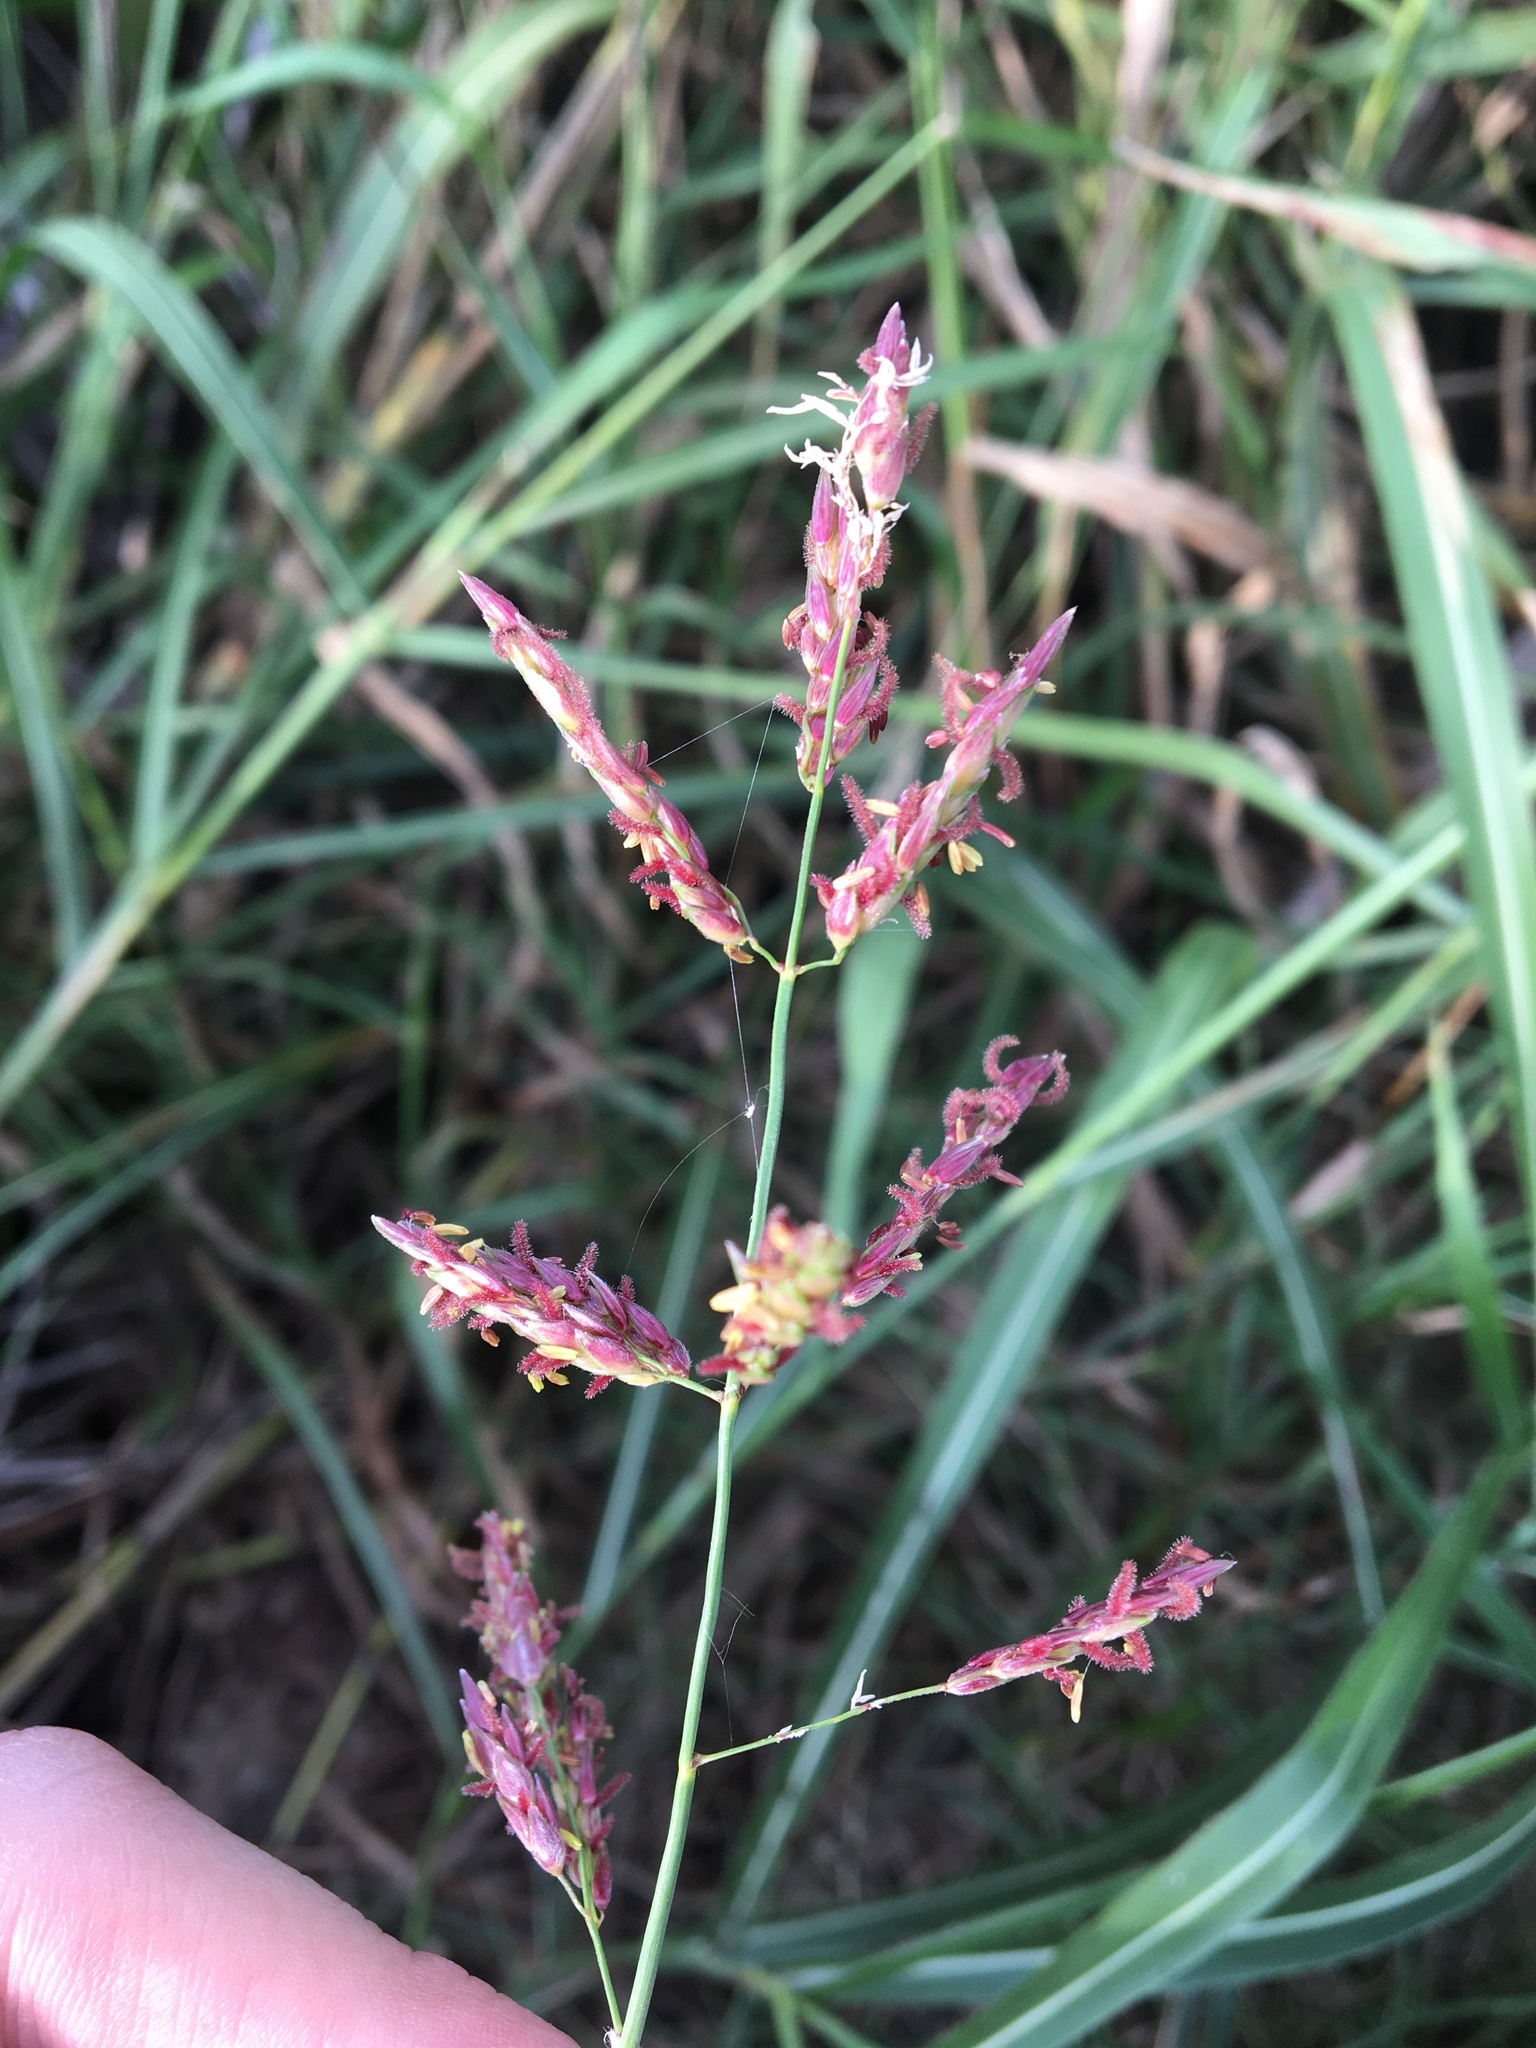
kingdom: Plantae
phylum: Tracheophyta
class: Liliopsida
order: Poales
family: Poaceae
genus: Sorghum
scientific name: Sorghum halepense
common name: Johnson-grass
